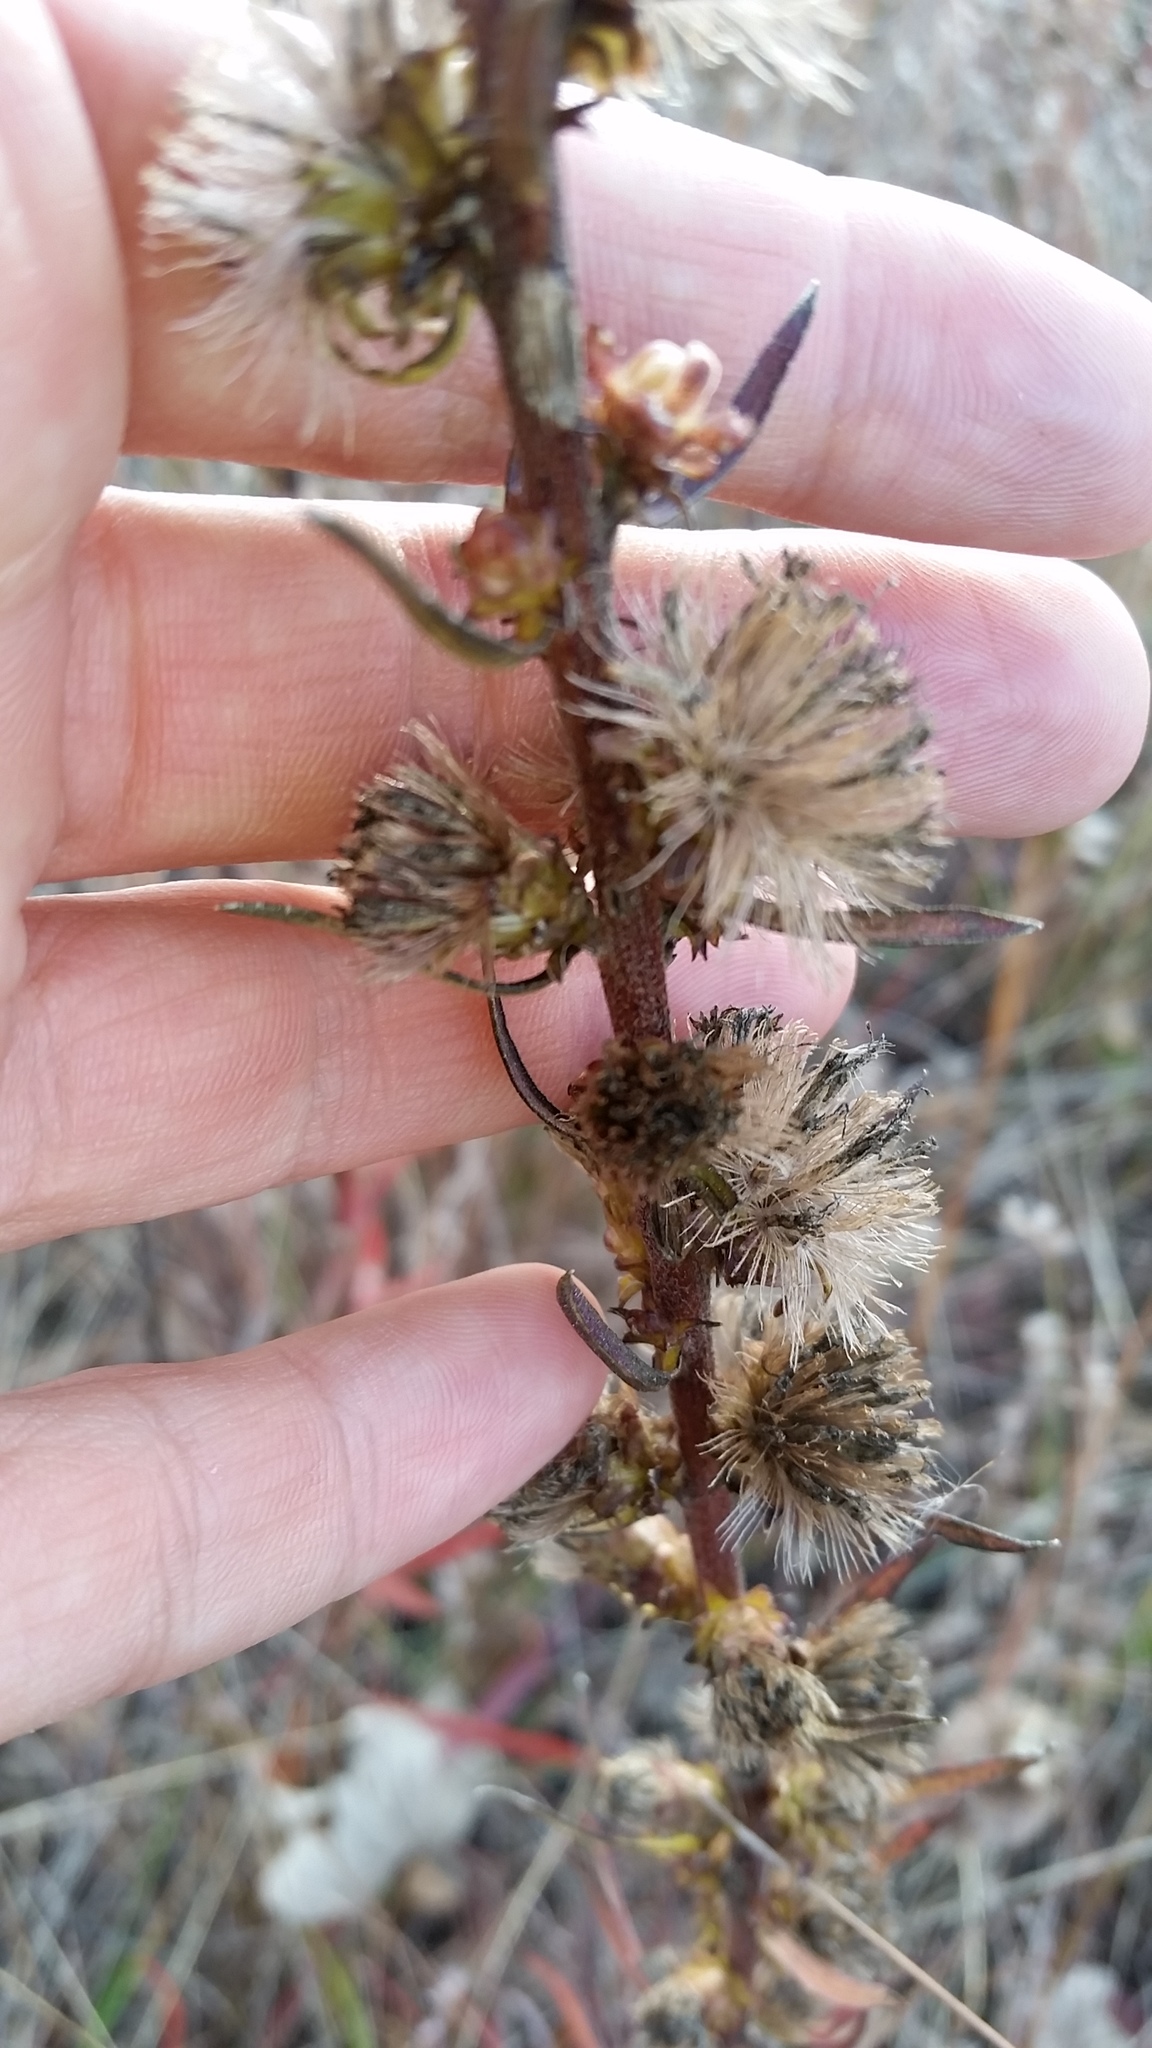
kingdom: Plantae
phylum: Tracheophyta
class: Magnoliopsida
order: Asterales
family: Asteraceae
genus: Liatris
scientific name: Liatris aspera
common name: Lacerate blazing-star
